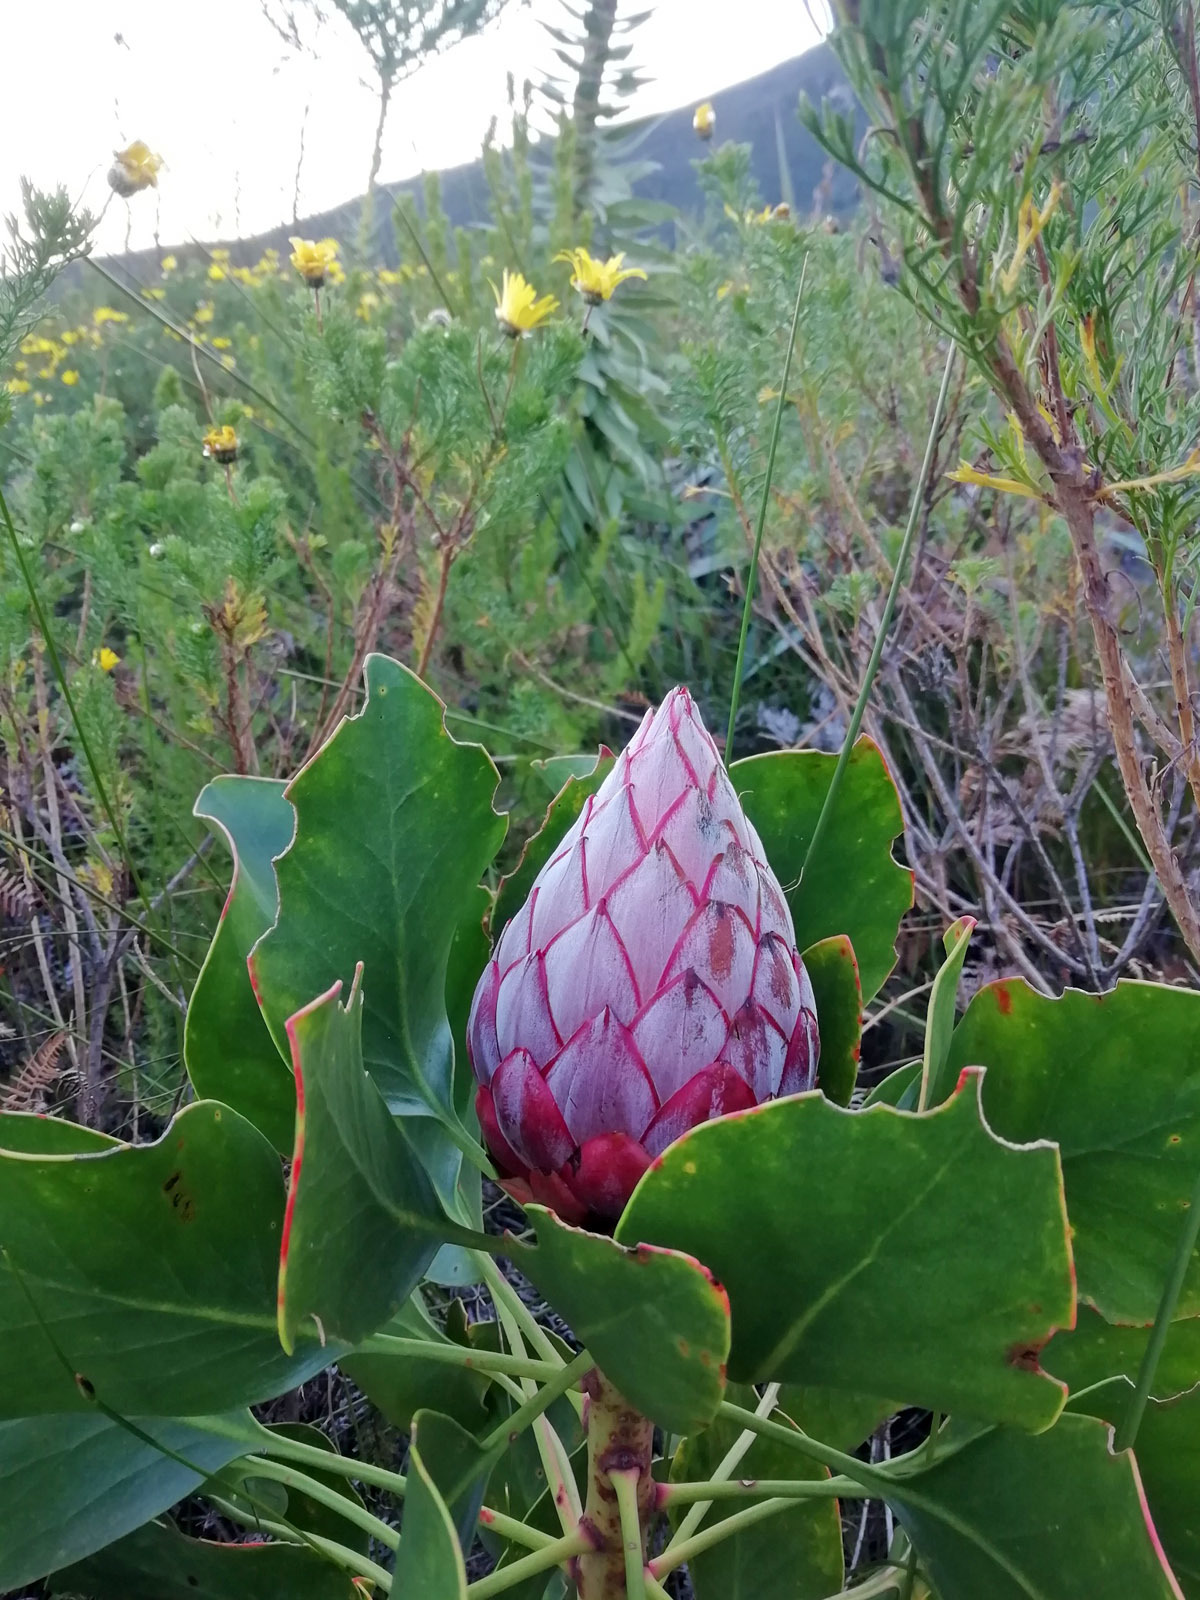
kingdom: Plantae
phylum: Tracheophyta
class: Magnoliopsida
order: Proteales
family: Proteaceae
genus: Protea
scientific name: Protea cynaroides
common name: King protea
